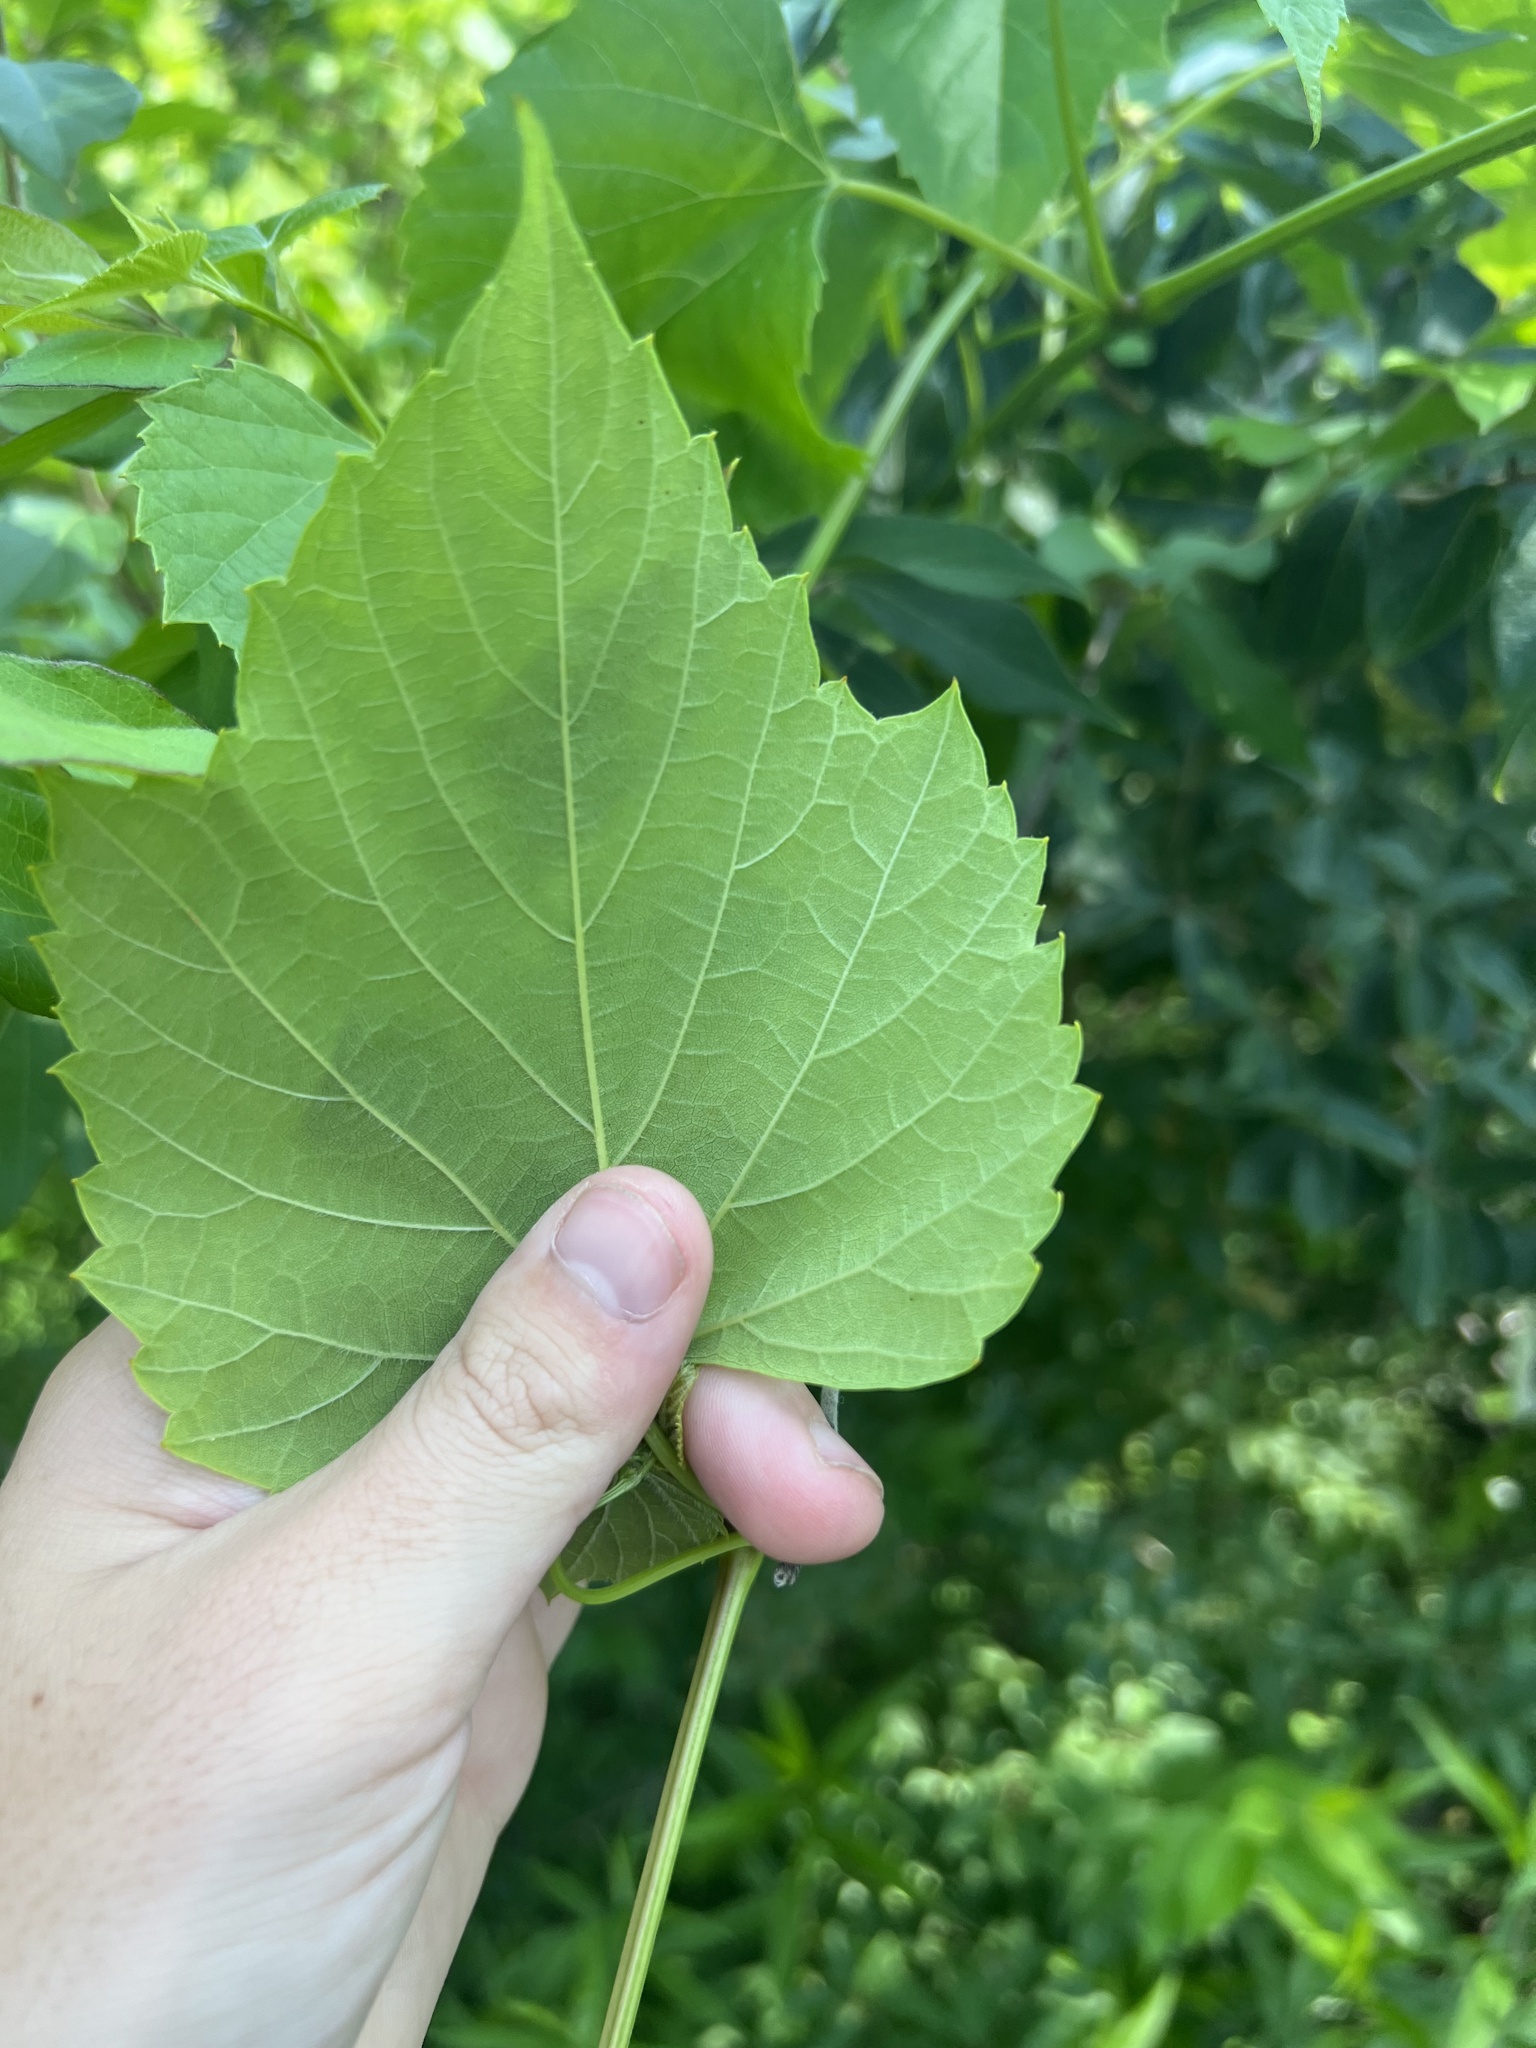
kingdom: Plantae
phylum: Tracheophyta
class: Magnoliopsida
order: Vitales
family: Vitaceae
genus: Ampelopsis
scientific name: Ampelopsis cordata
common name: Heart-leaf ampelopsis
